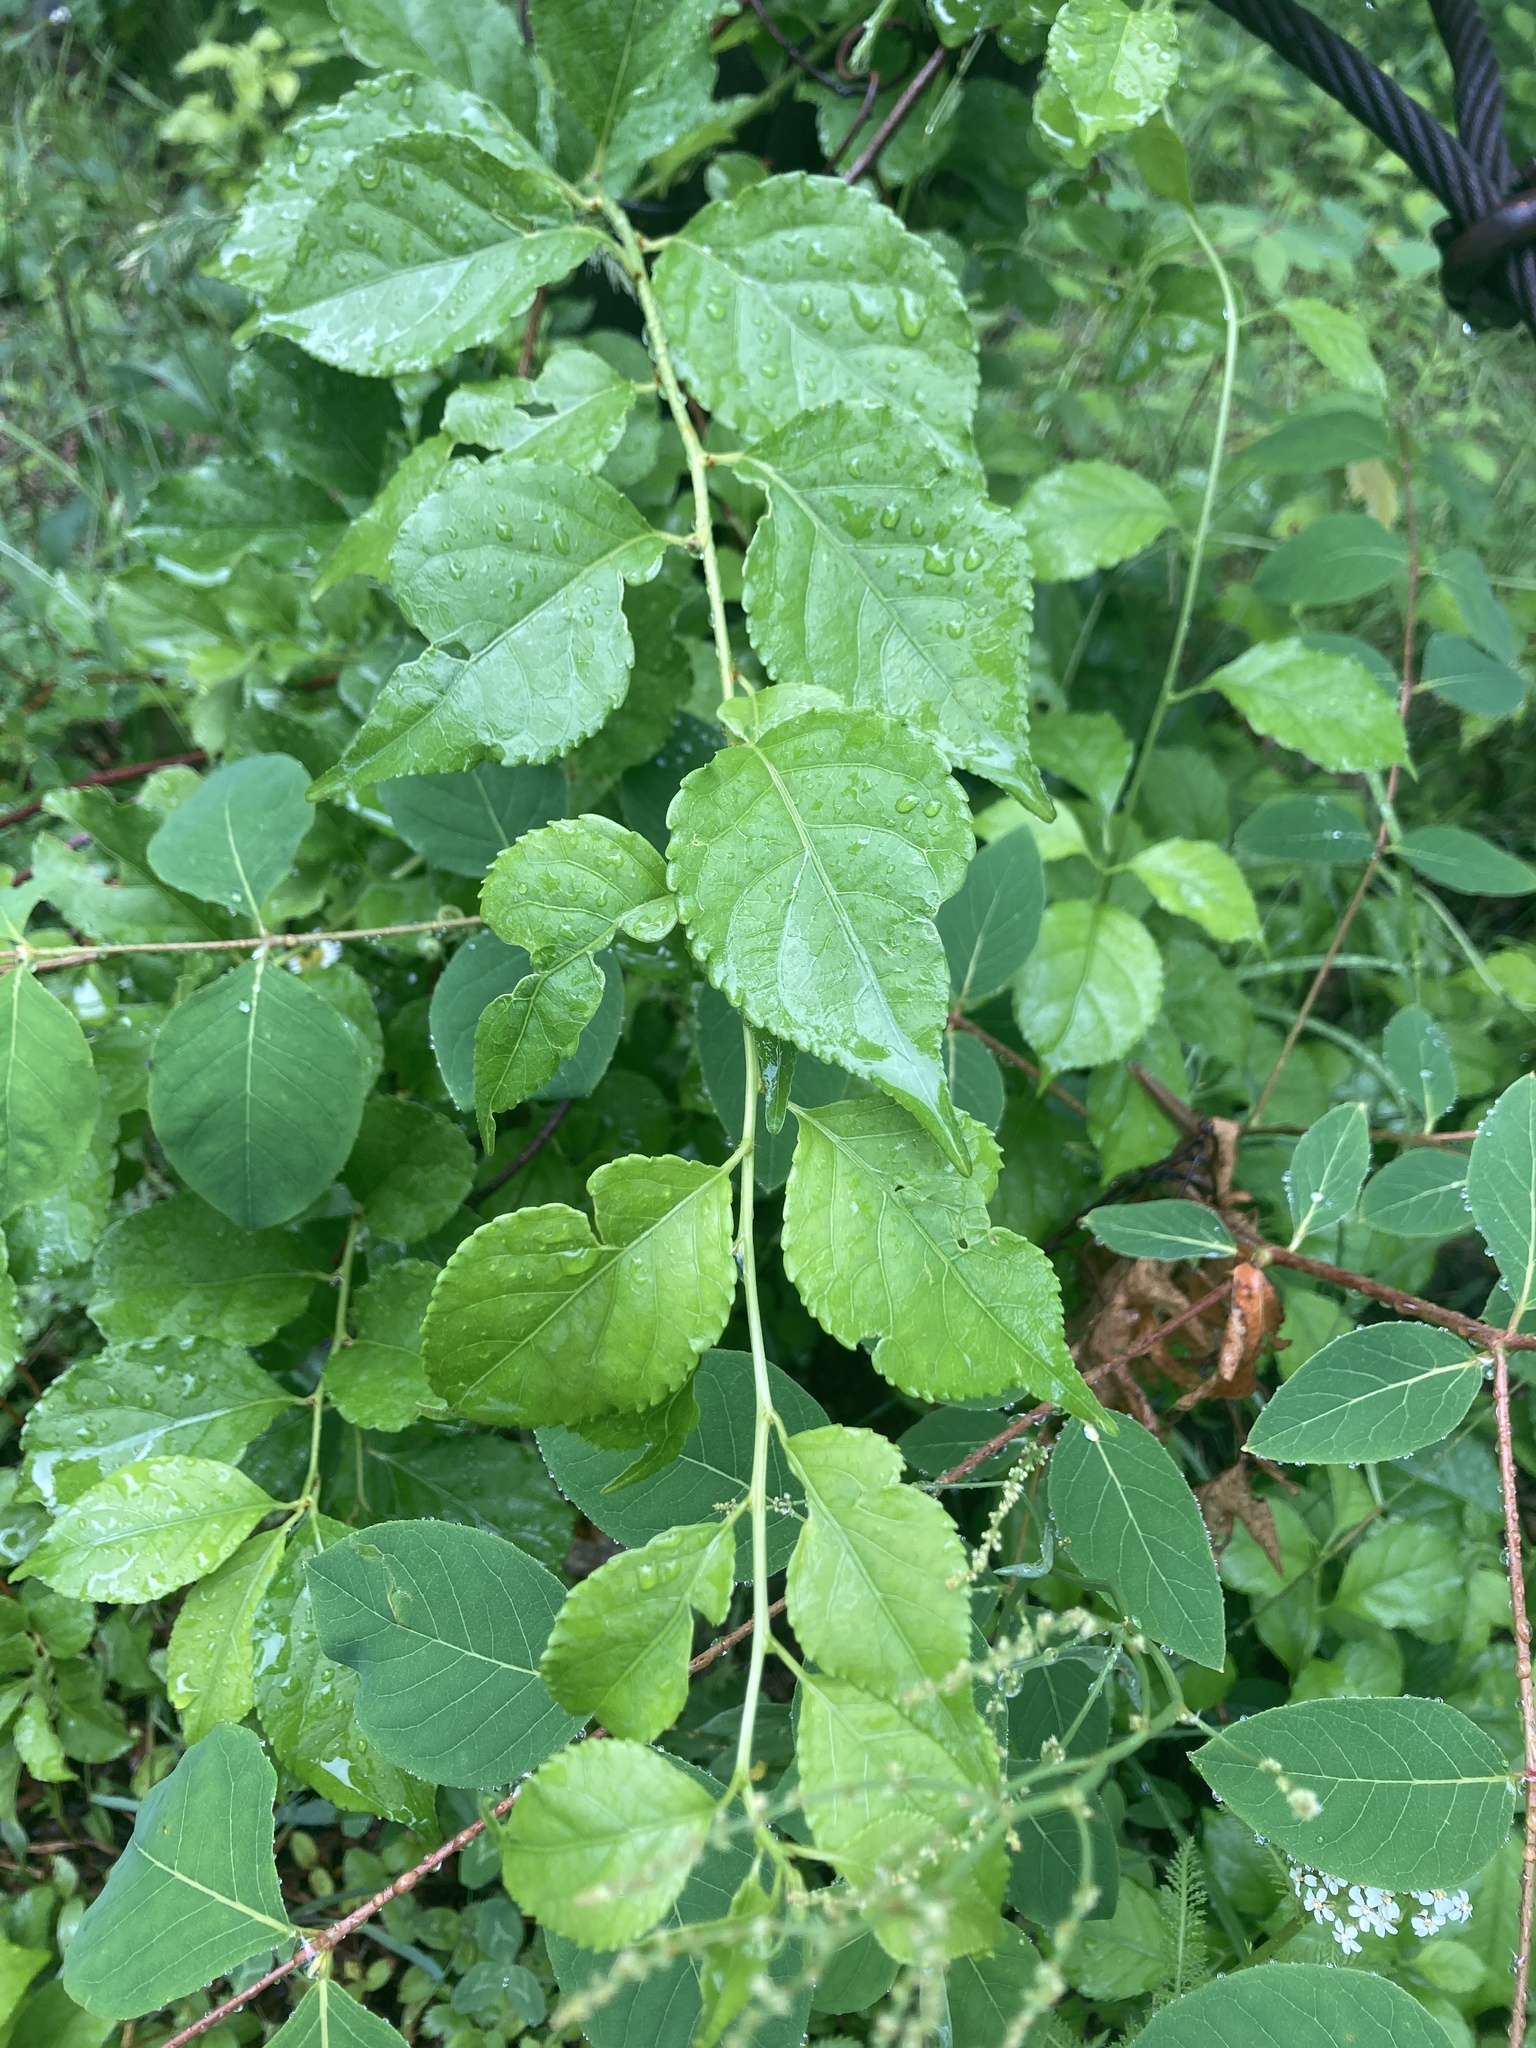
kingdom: Plantae
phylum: Tracheophyta
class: Magnoliopsida
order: Celastrales
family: Celastraceae
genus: Celastrus
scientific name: Celastrus orbiculatus
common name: Oriental bittersweet
